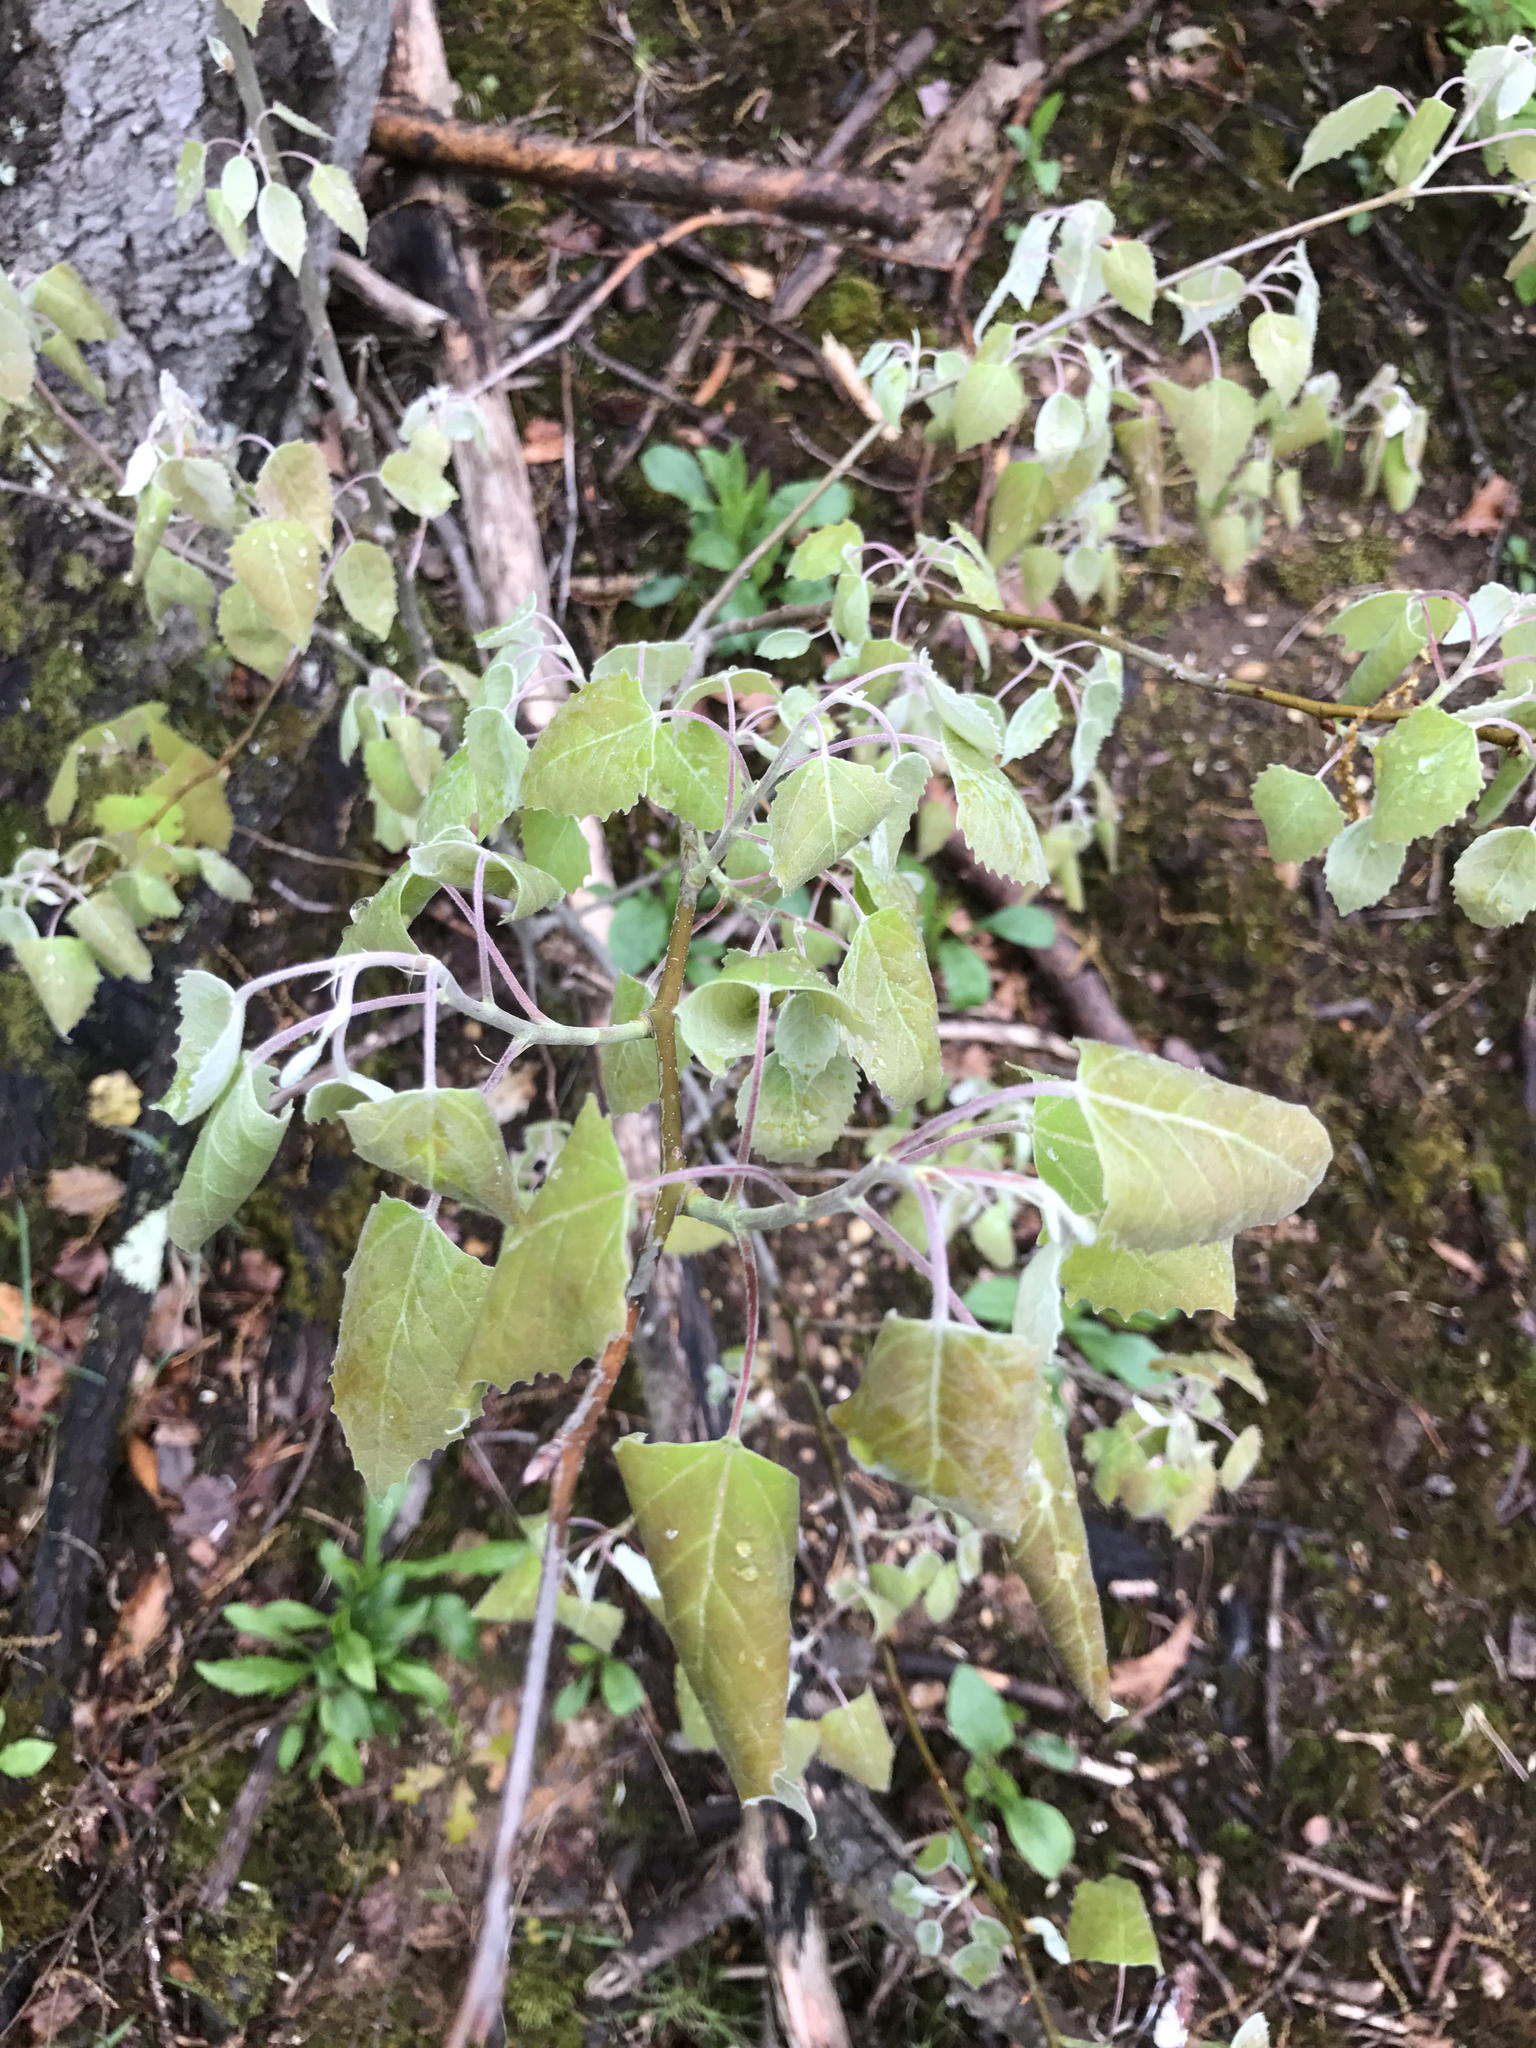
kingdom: Plantae
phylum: Tracheophyta
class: Magnoliopsida
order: Malpighiales
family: Salicaceae
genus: Populus
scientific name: Populus grandidentata
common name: Bigtooth aspen
